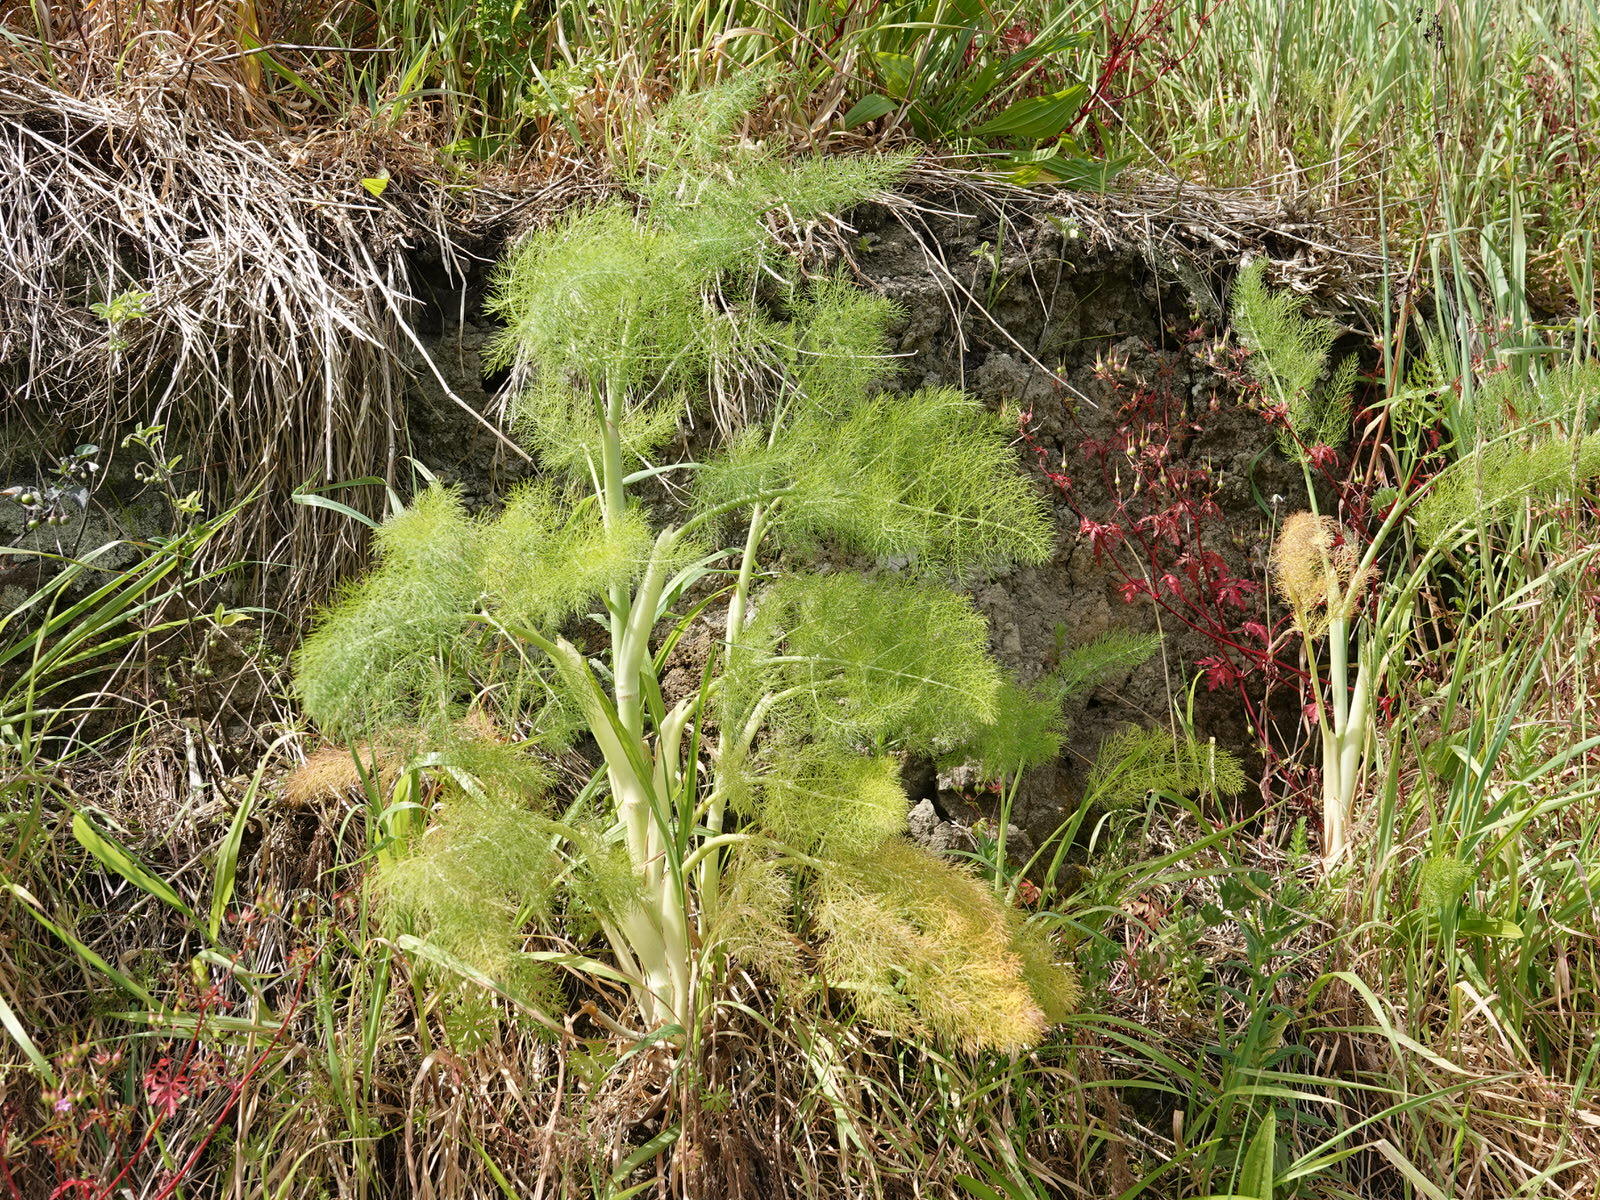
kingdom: Plantae
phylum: Tracheophyta
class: Magnoliopsida
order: Apiales
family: Apiaceae
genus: Foeniculum
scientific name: Foeniculum vulgare
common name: Fennel
